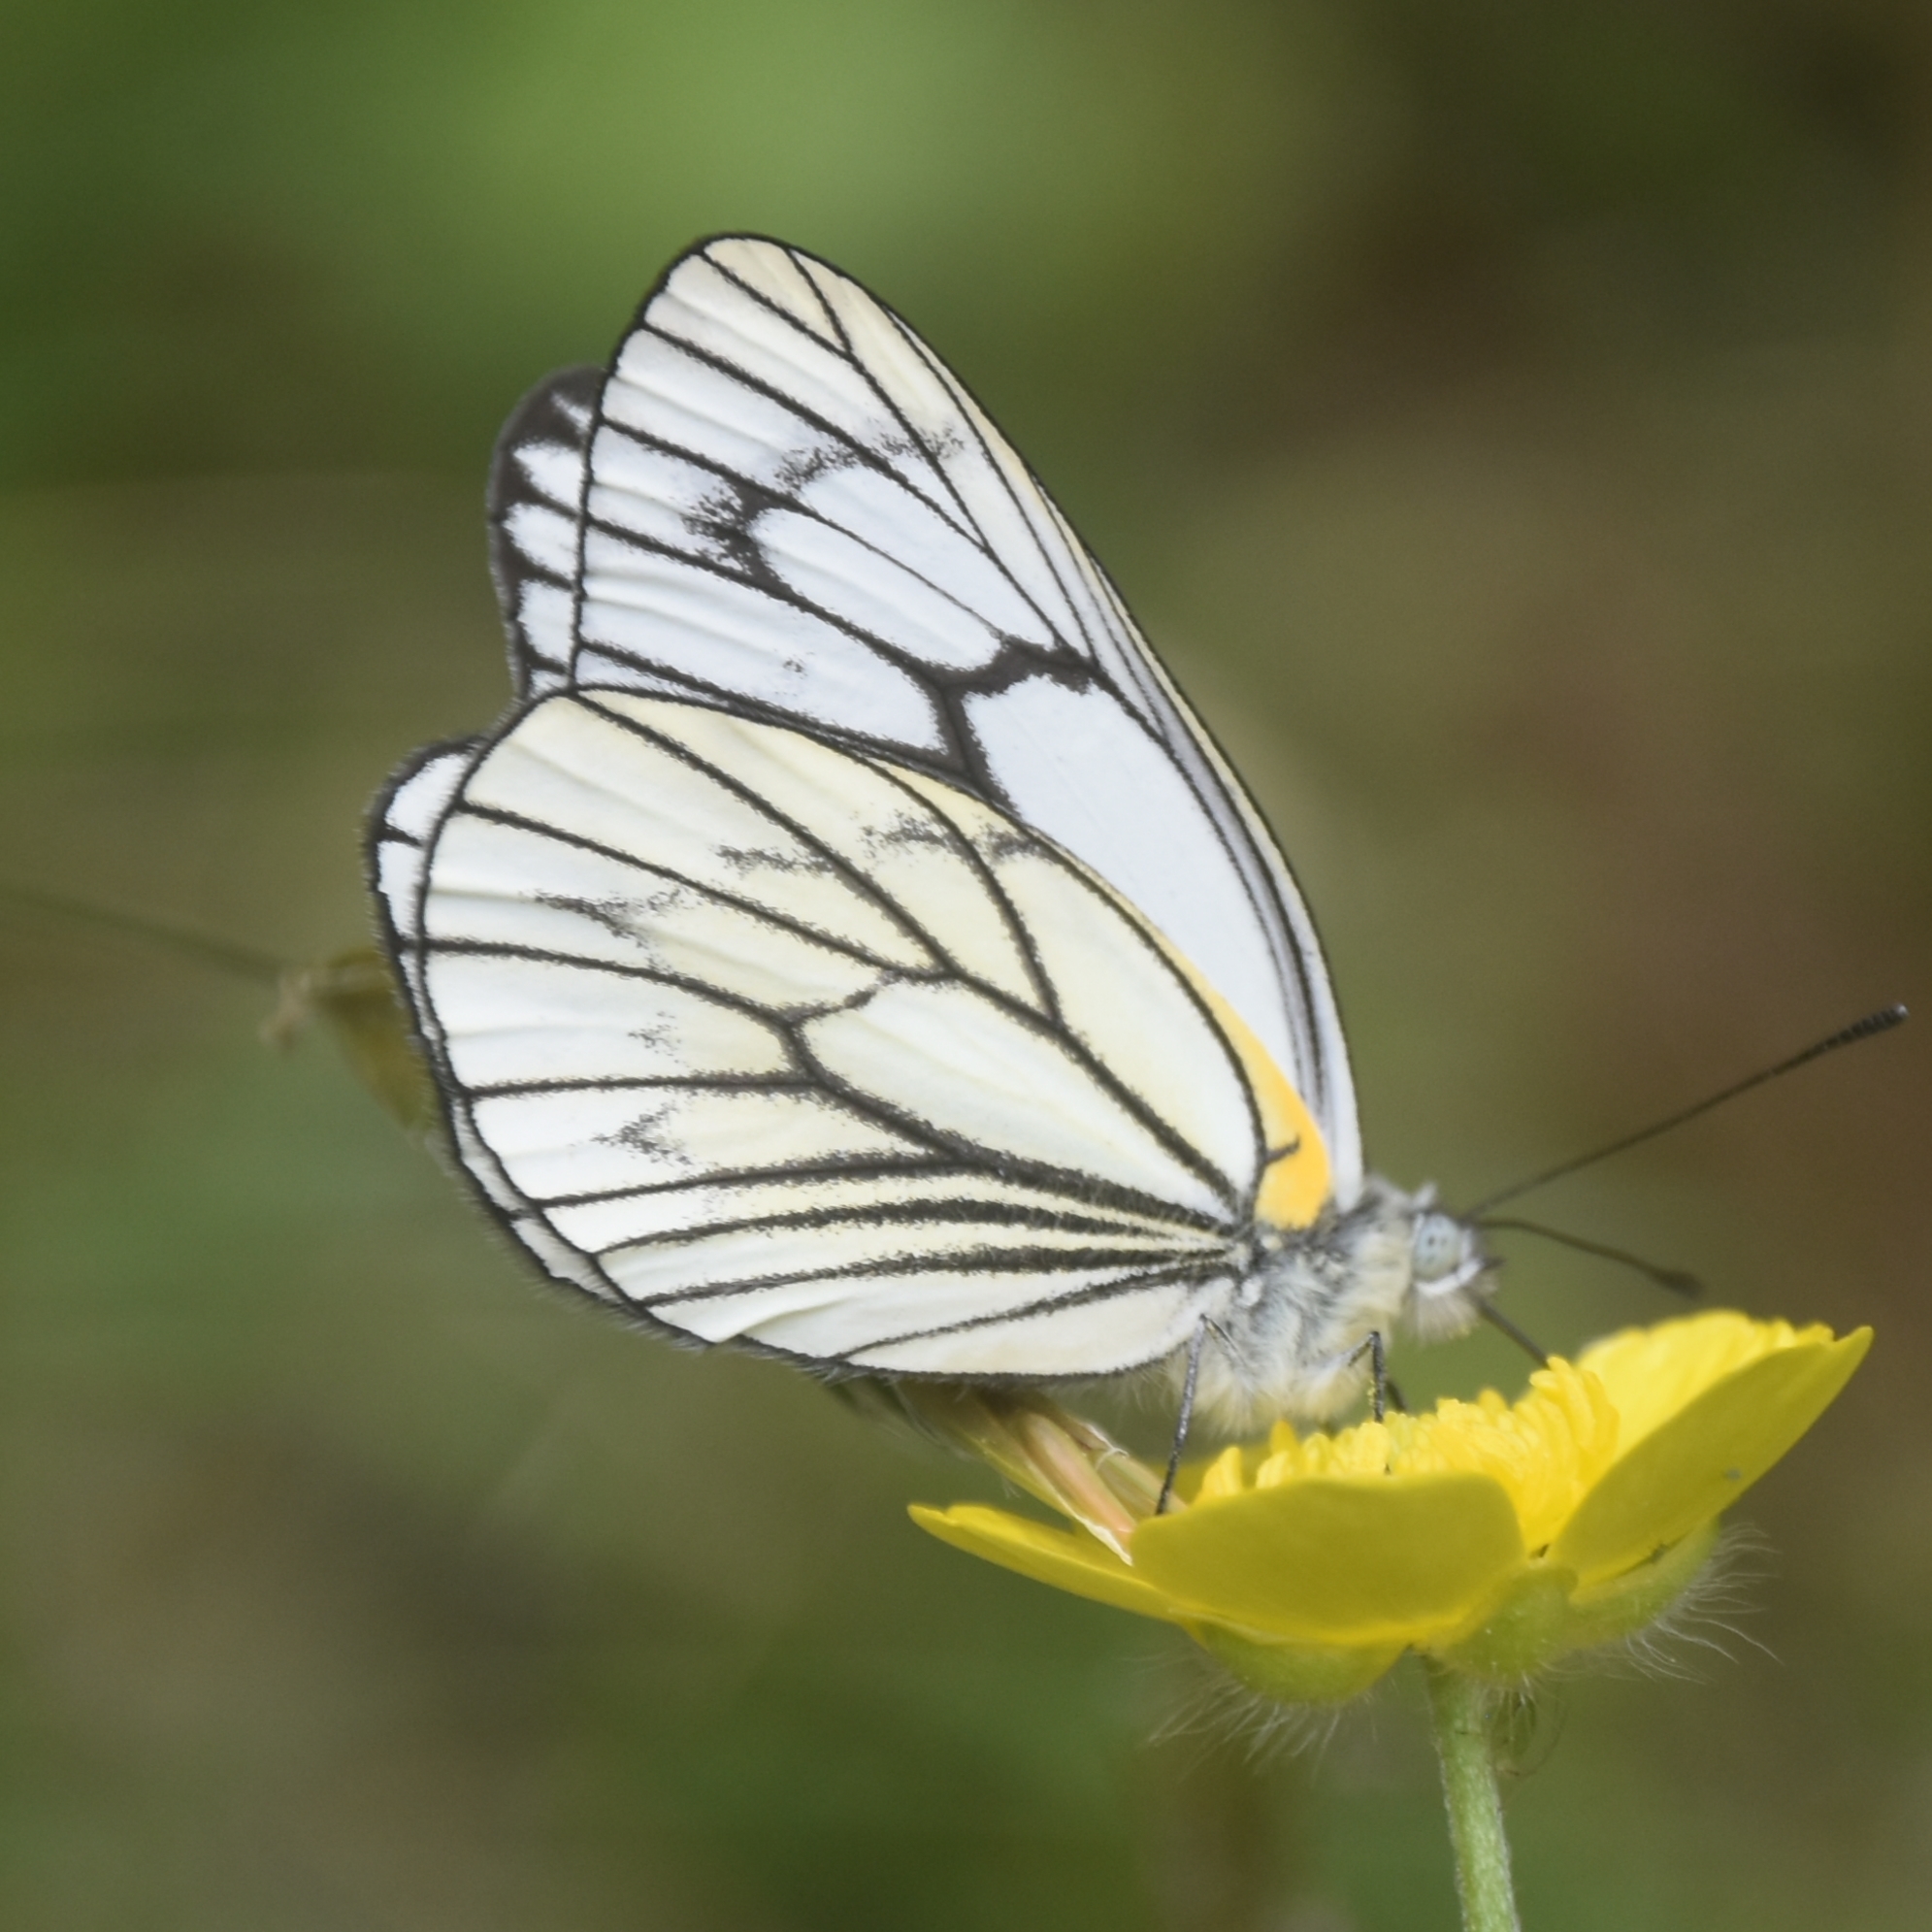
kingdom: Animalia
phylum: Arthropoda
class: Insecta
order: Lepidoptera
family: Pieridae
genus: Aporia
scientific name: Aporia leucodice
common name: Himalayan blackvein
